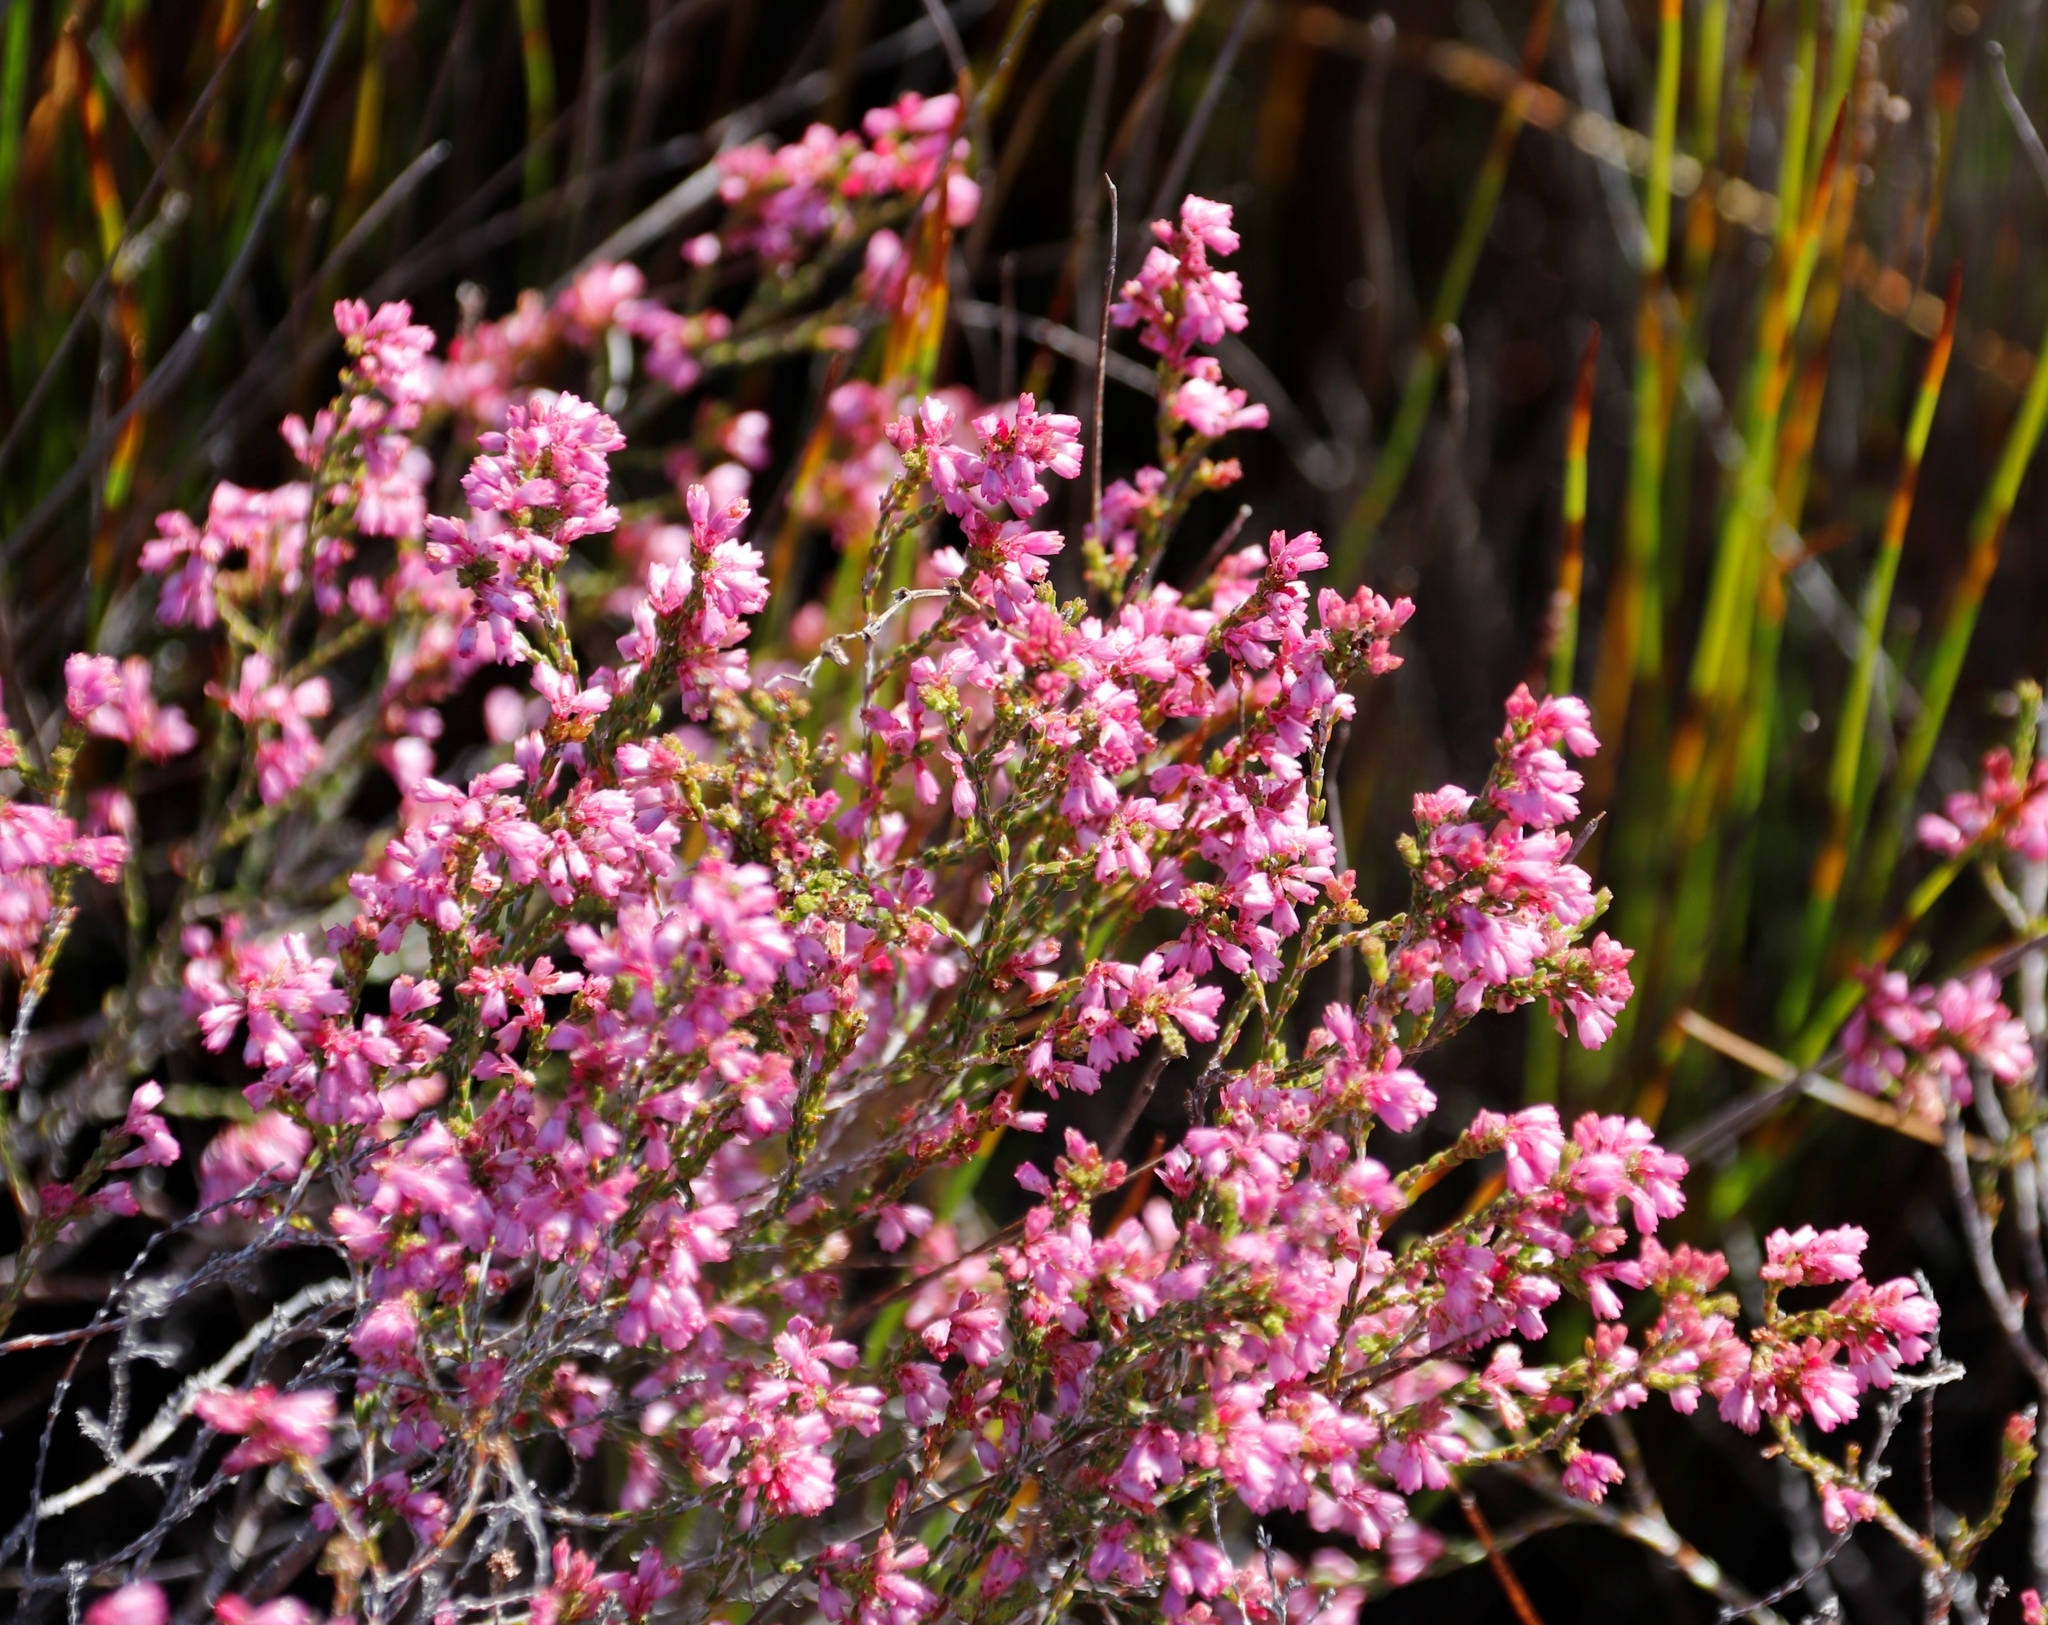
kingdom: Plantae
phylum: Tracheophyta
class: Magnoliopsida
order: Ericales
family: Ericaceae
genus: Erica
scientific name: Erica gnaphaloides
